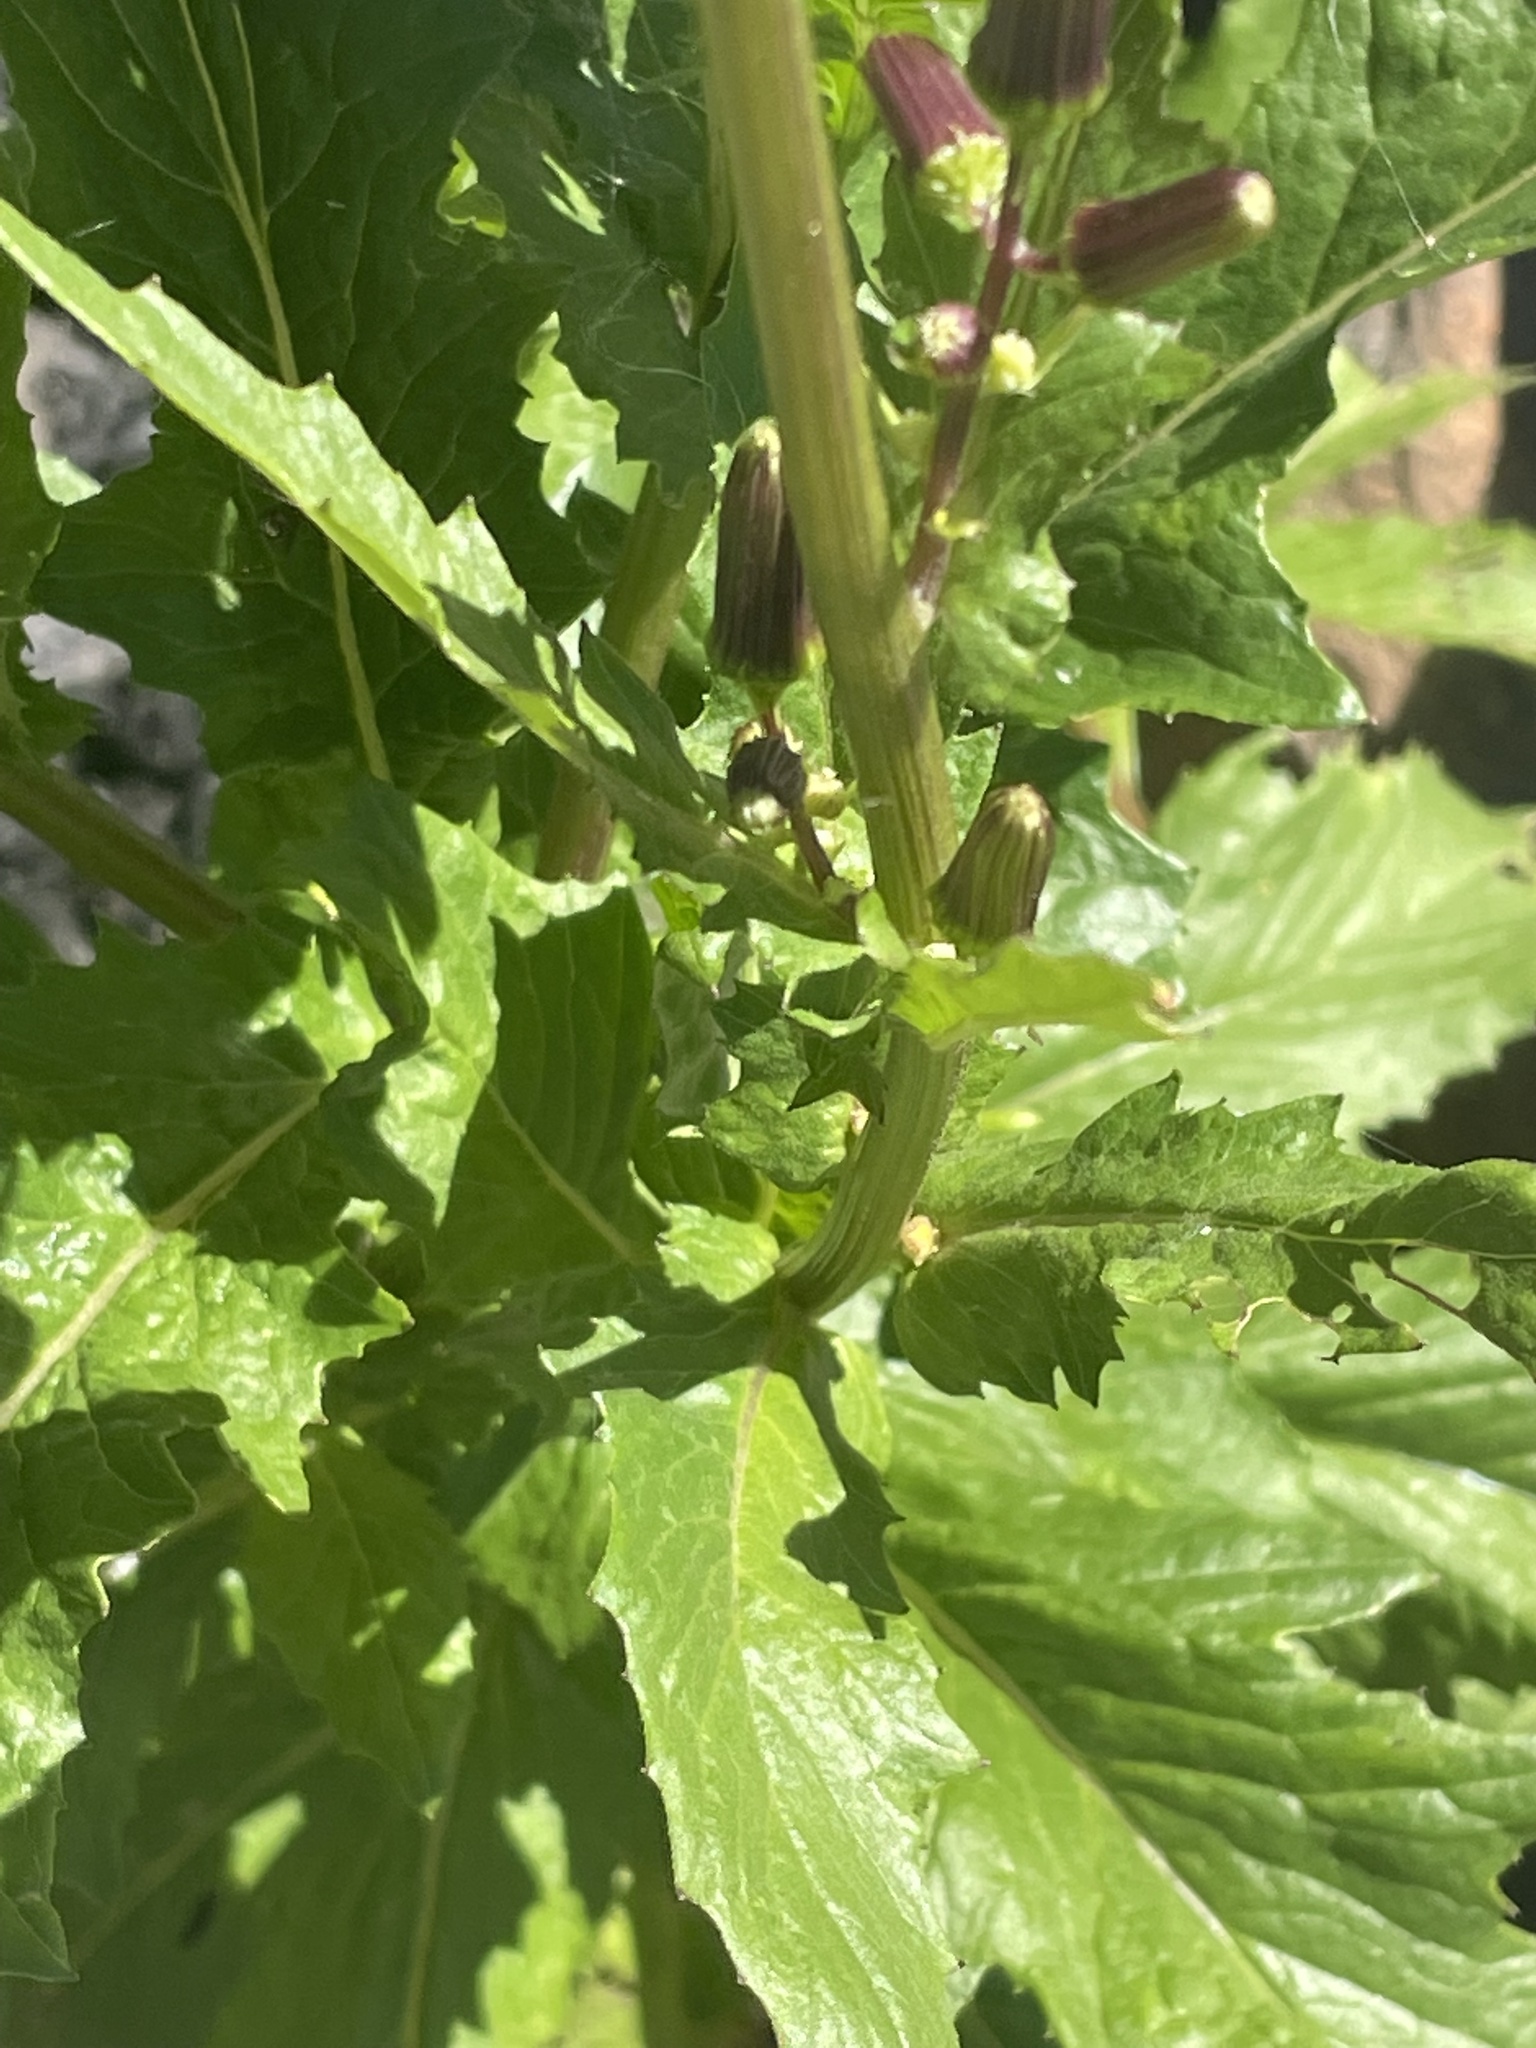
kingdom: Plantae
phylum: Tracheophyta
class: Magnoliopsida
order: Asterales
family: Asteraceae
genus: Erechtites
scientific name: Erechtites hieraciifolius
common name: American burnweed
